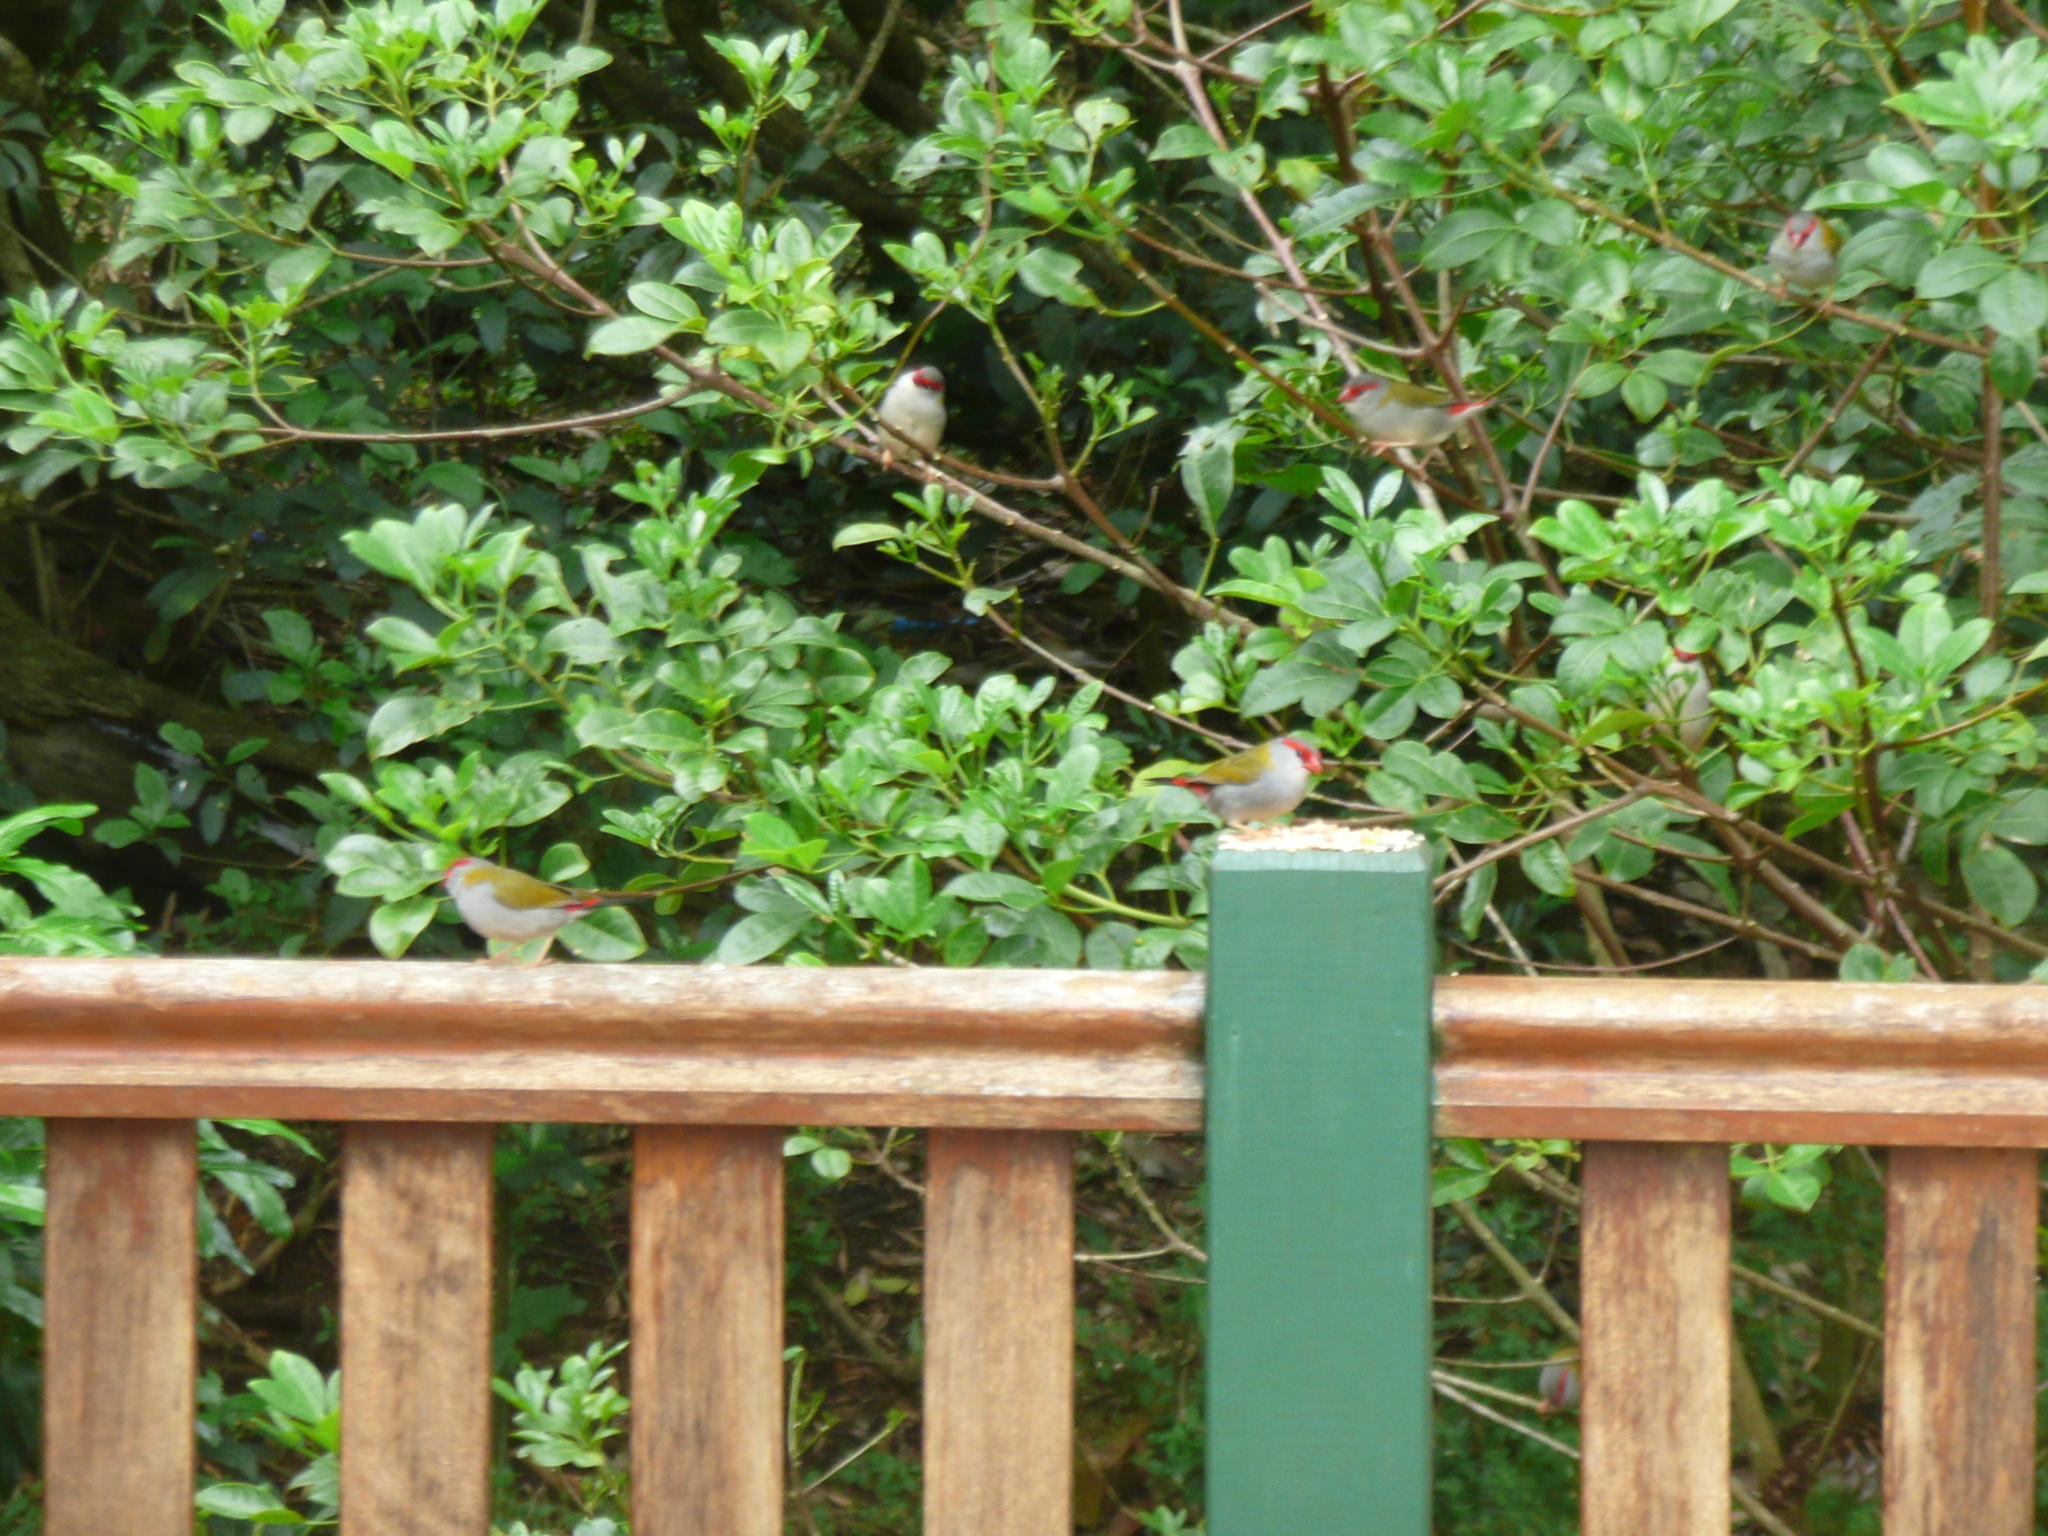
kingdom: Animalia
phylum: Chordata
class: Aves
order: Passeriformes
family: Estrildidae
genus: Neochmia
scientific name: Neochmia temporalis
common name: Red-browed finch
